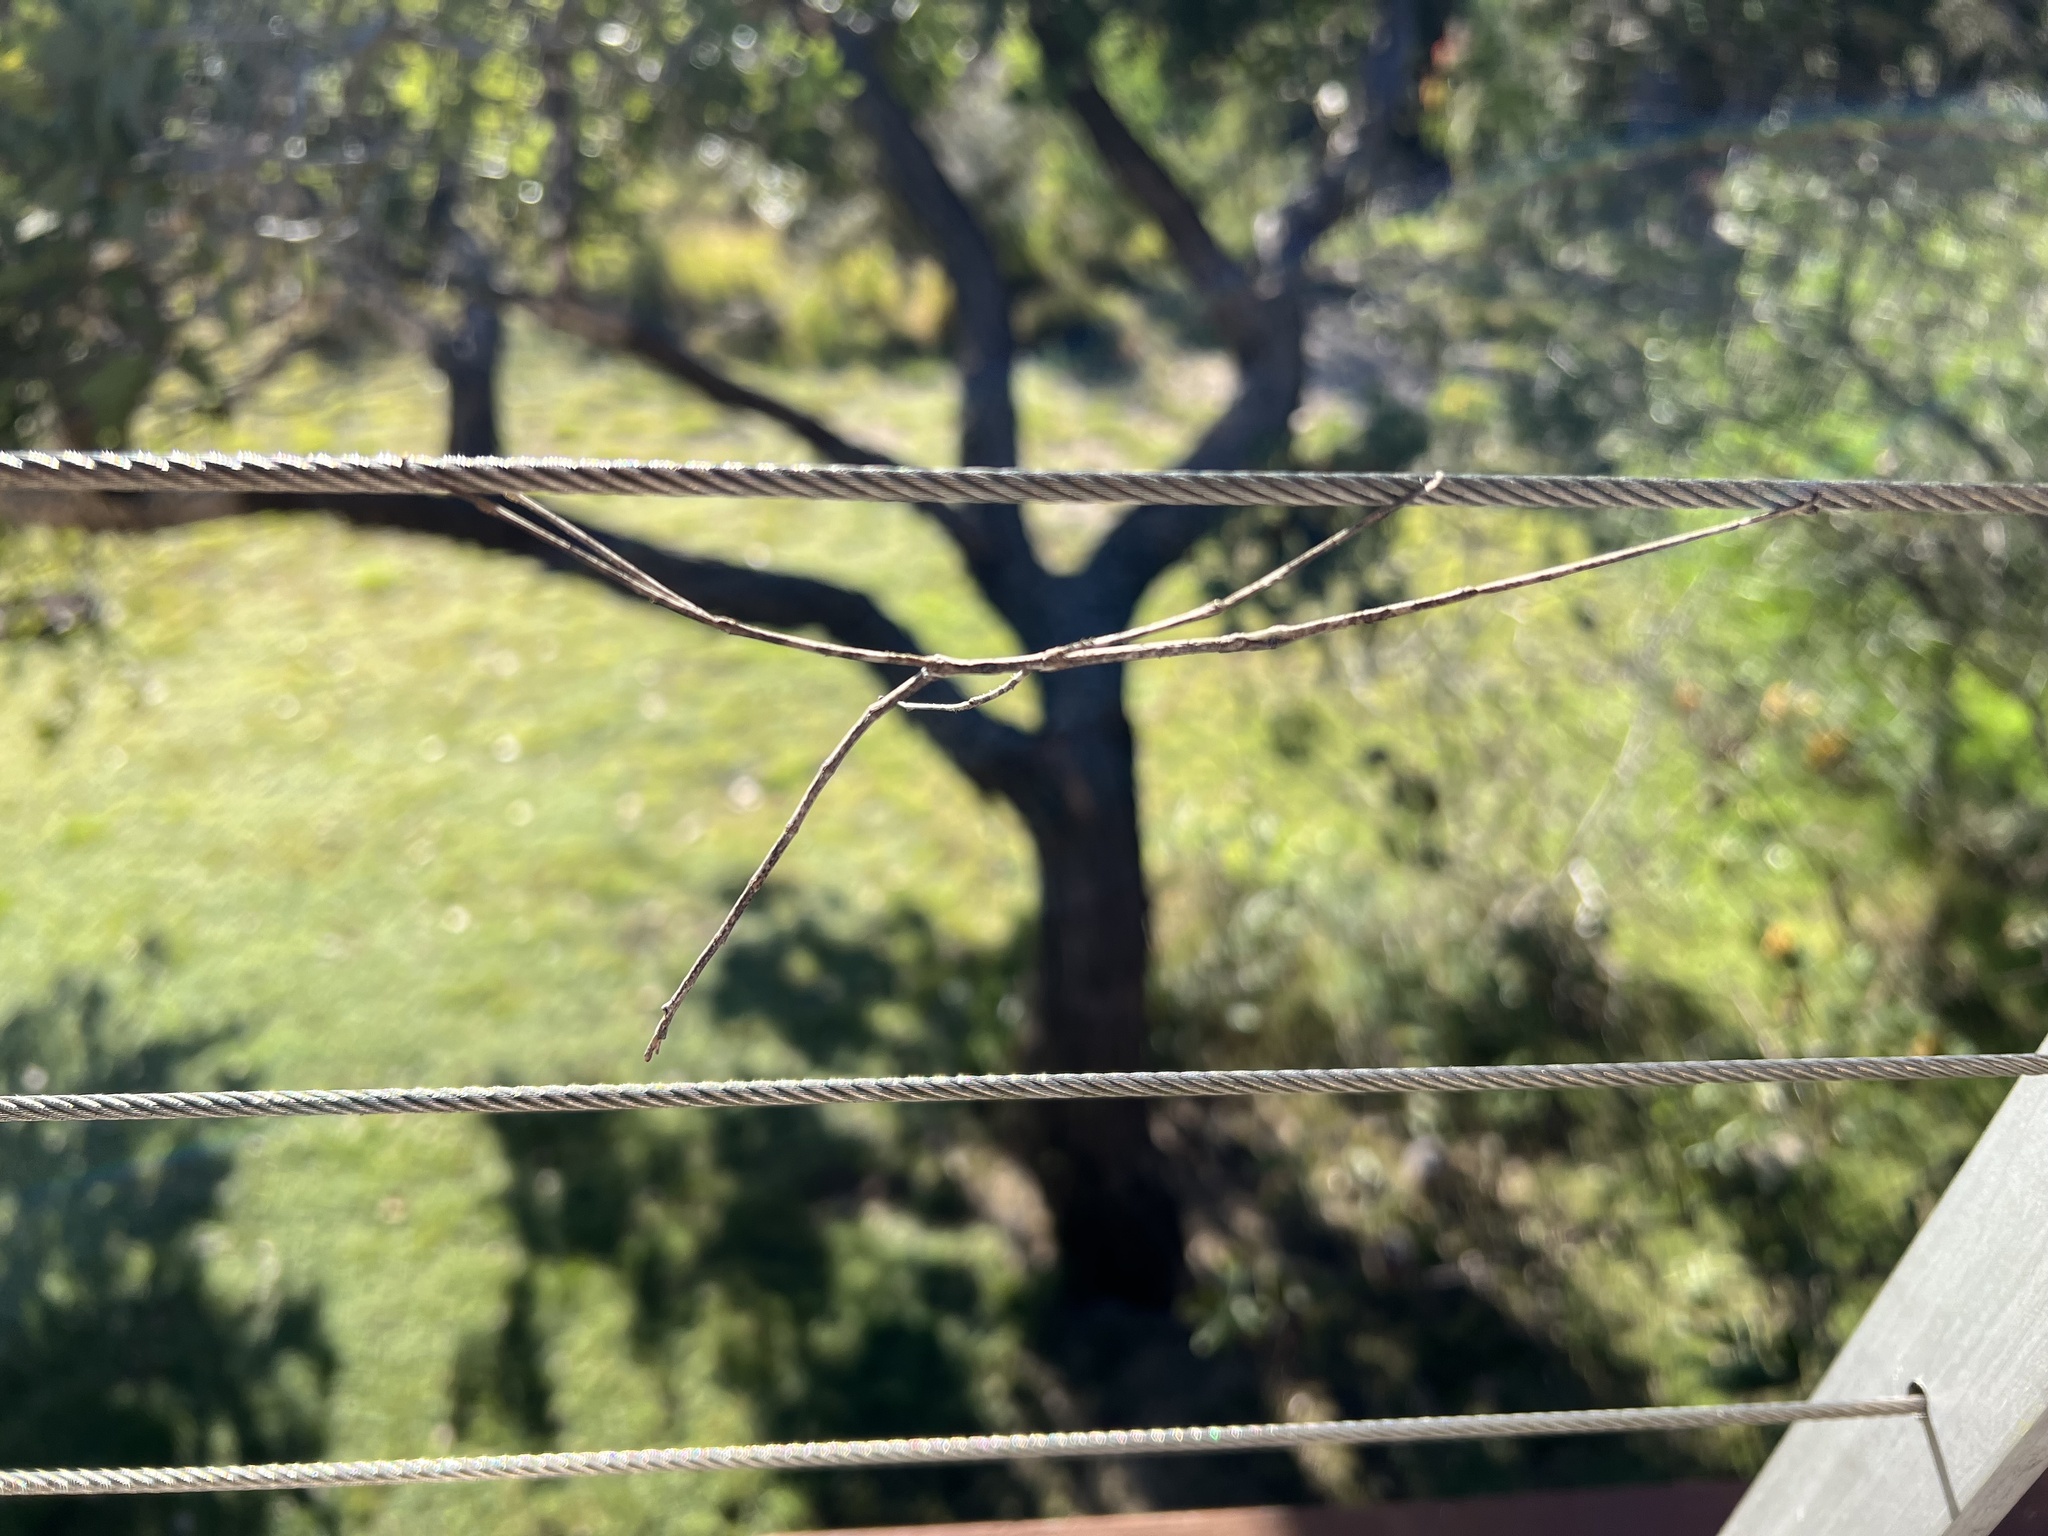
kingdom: Animalia
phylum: Arthropoda
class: Insecta
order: Phasmida
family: Phasmatidae
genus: Ctenomorpha
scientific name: Ctenomorpha marginipennis
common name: Margined-winged stick-insect
